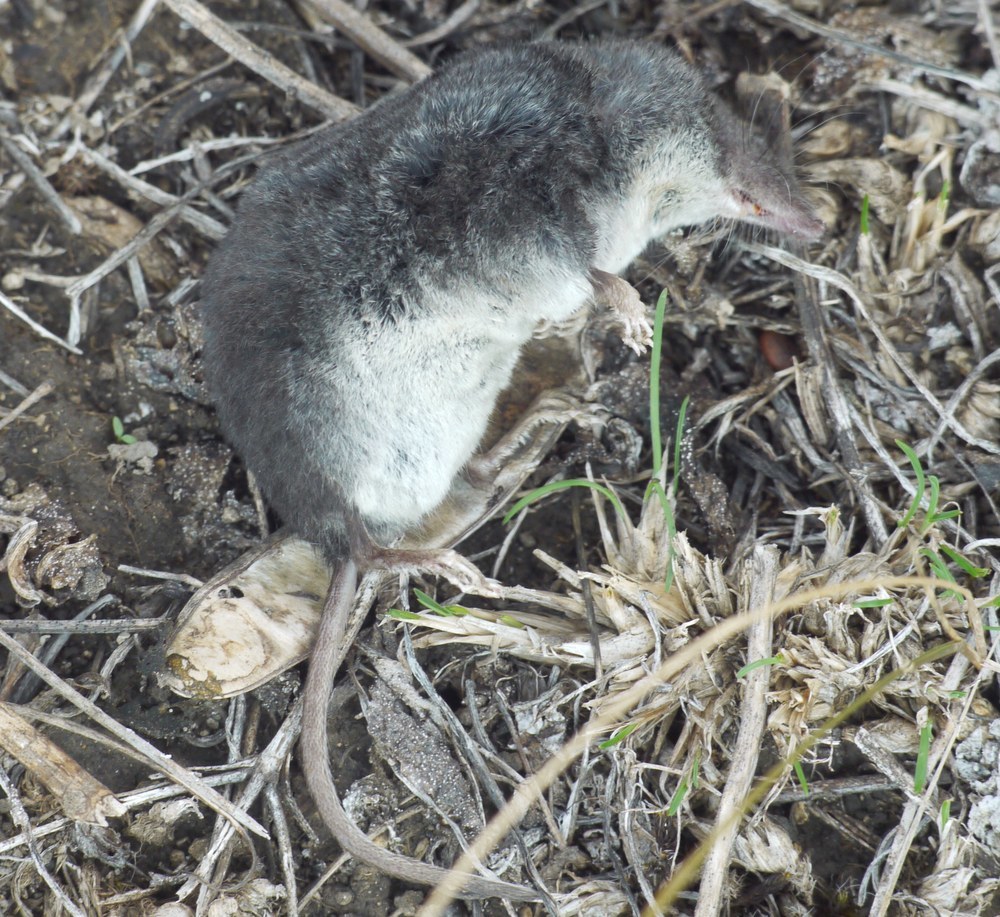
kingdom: Animalia
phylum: Chordata
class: Mammalia
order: Soricomorpha
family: Soricidae
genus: Neomys
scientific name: Neomys milleri
